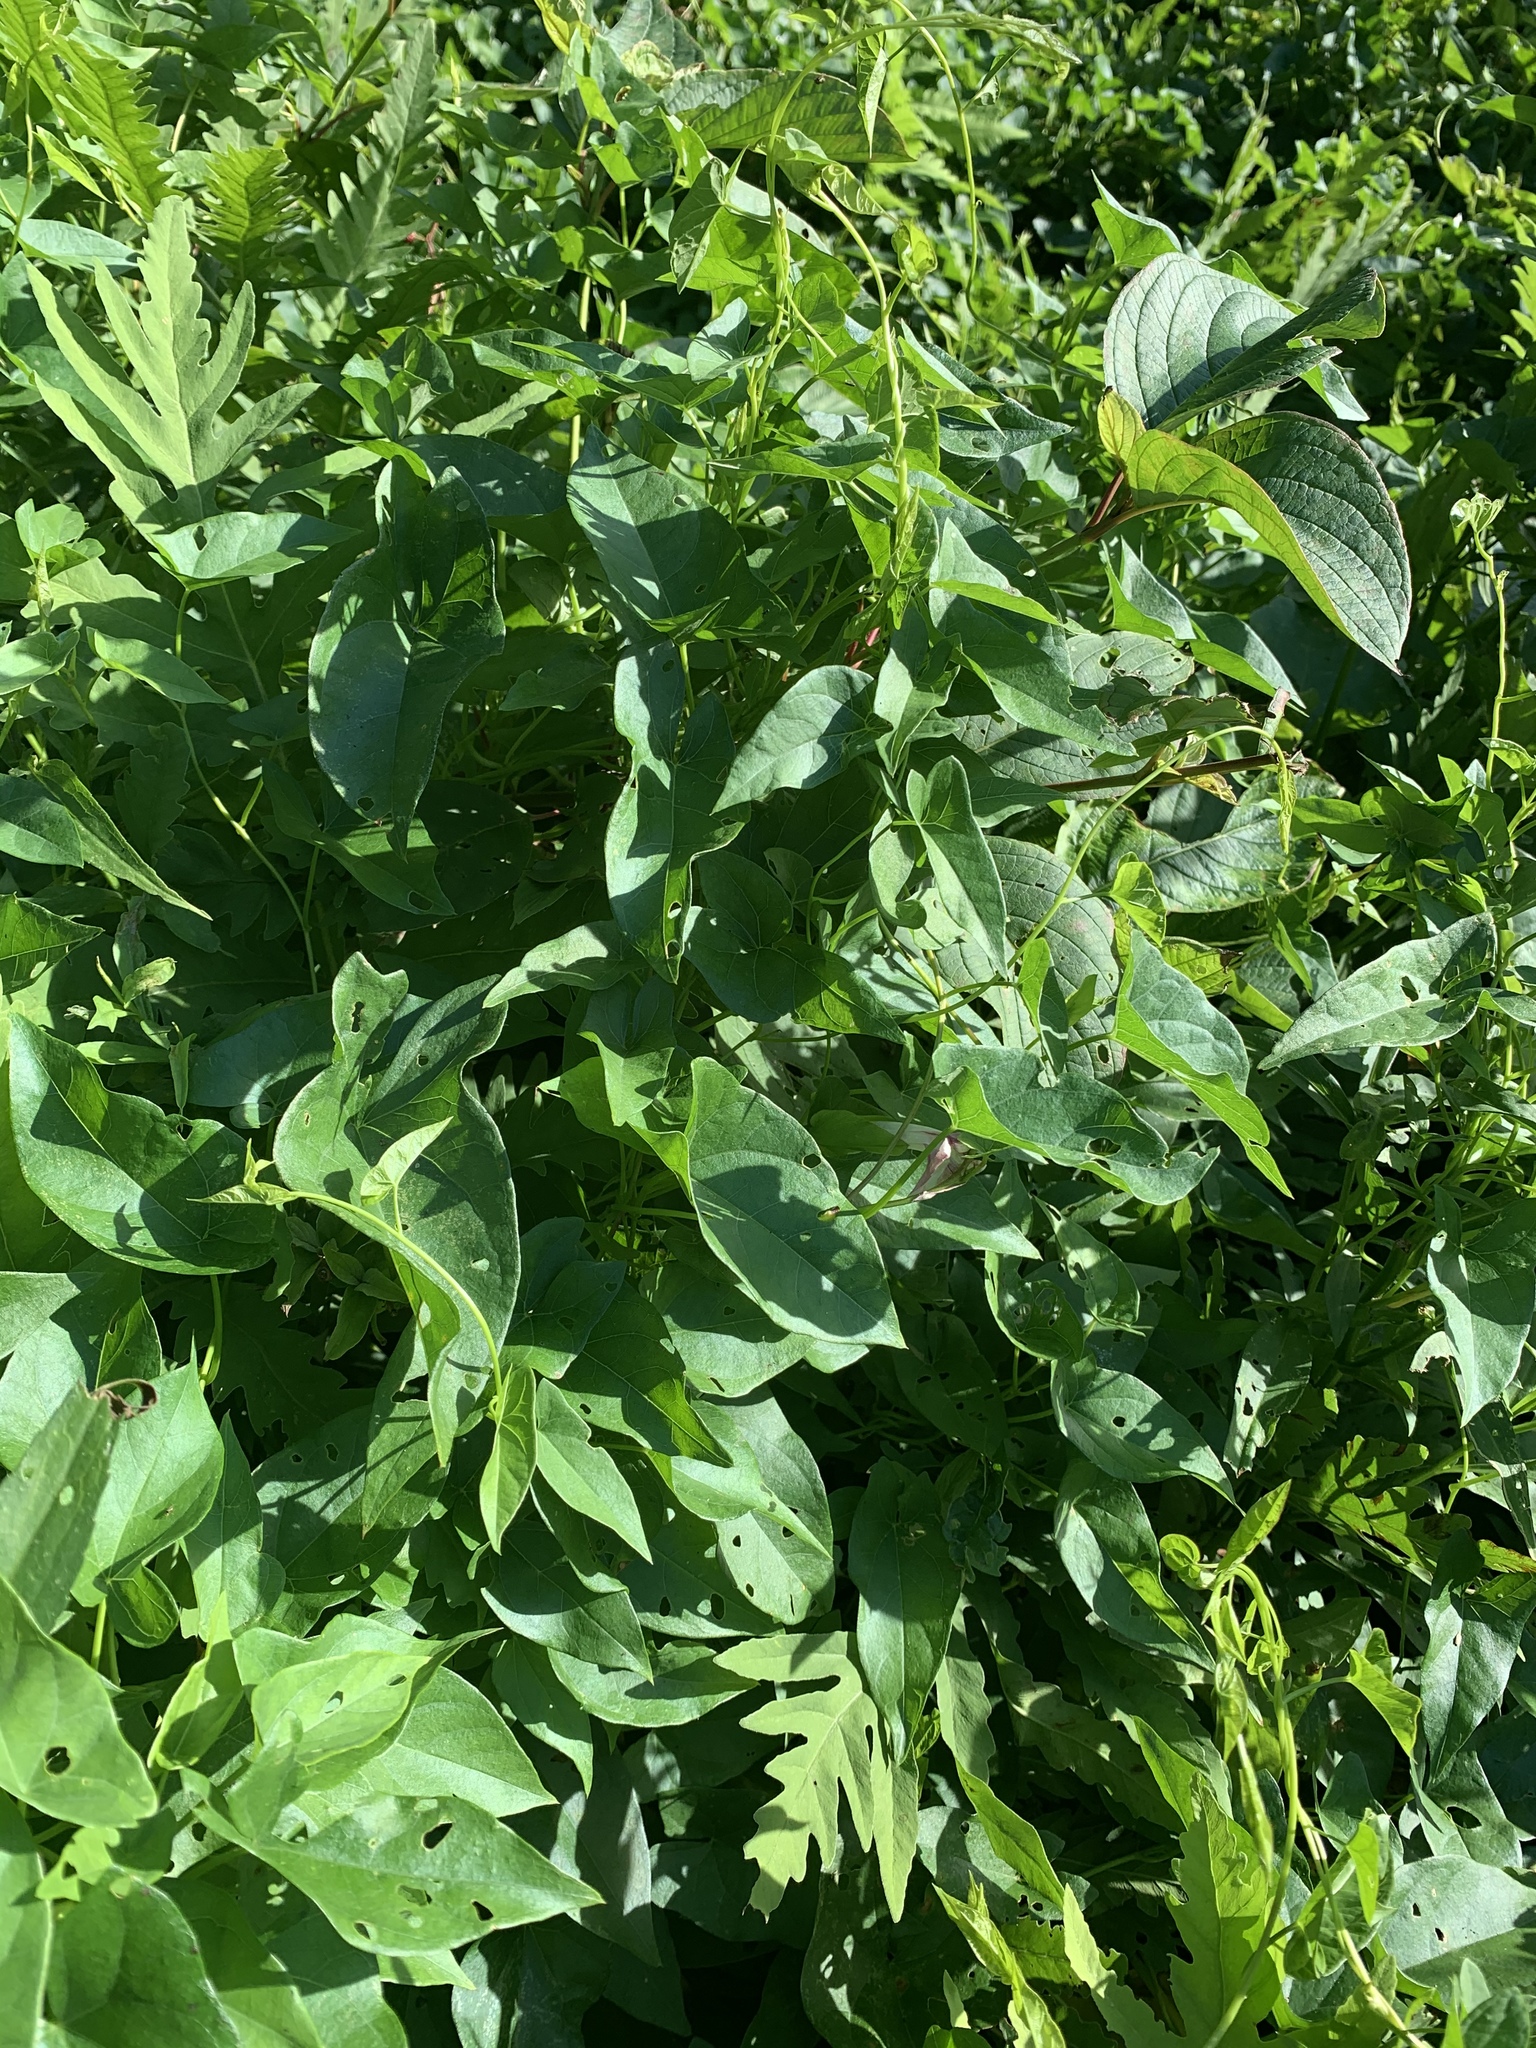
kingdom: Plantae
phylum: Tracheophyta
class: Magnoliopsida
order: Solanales
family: Convolvulaceae
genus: Calystegia
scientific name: Calystegia sepium
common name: Hedge bindweed
